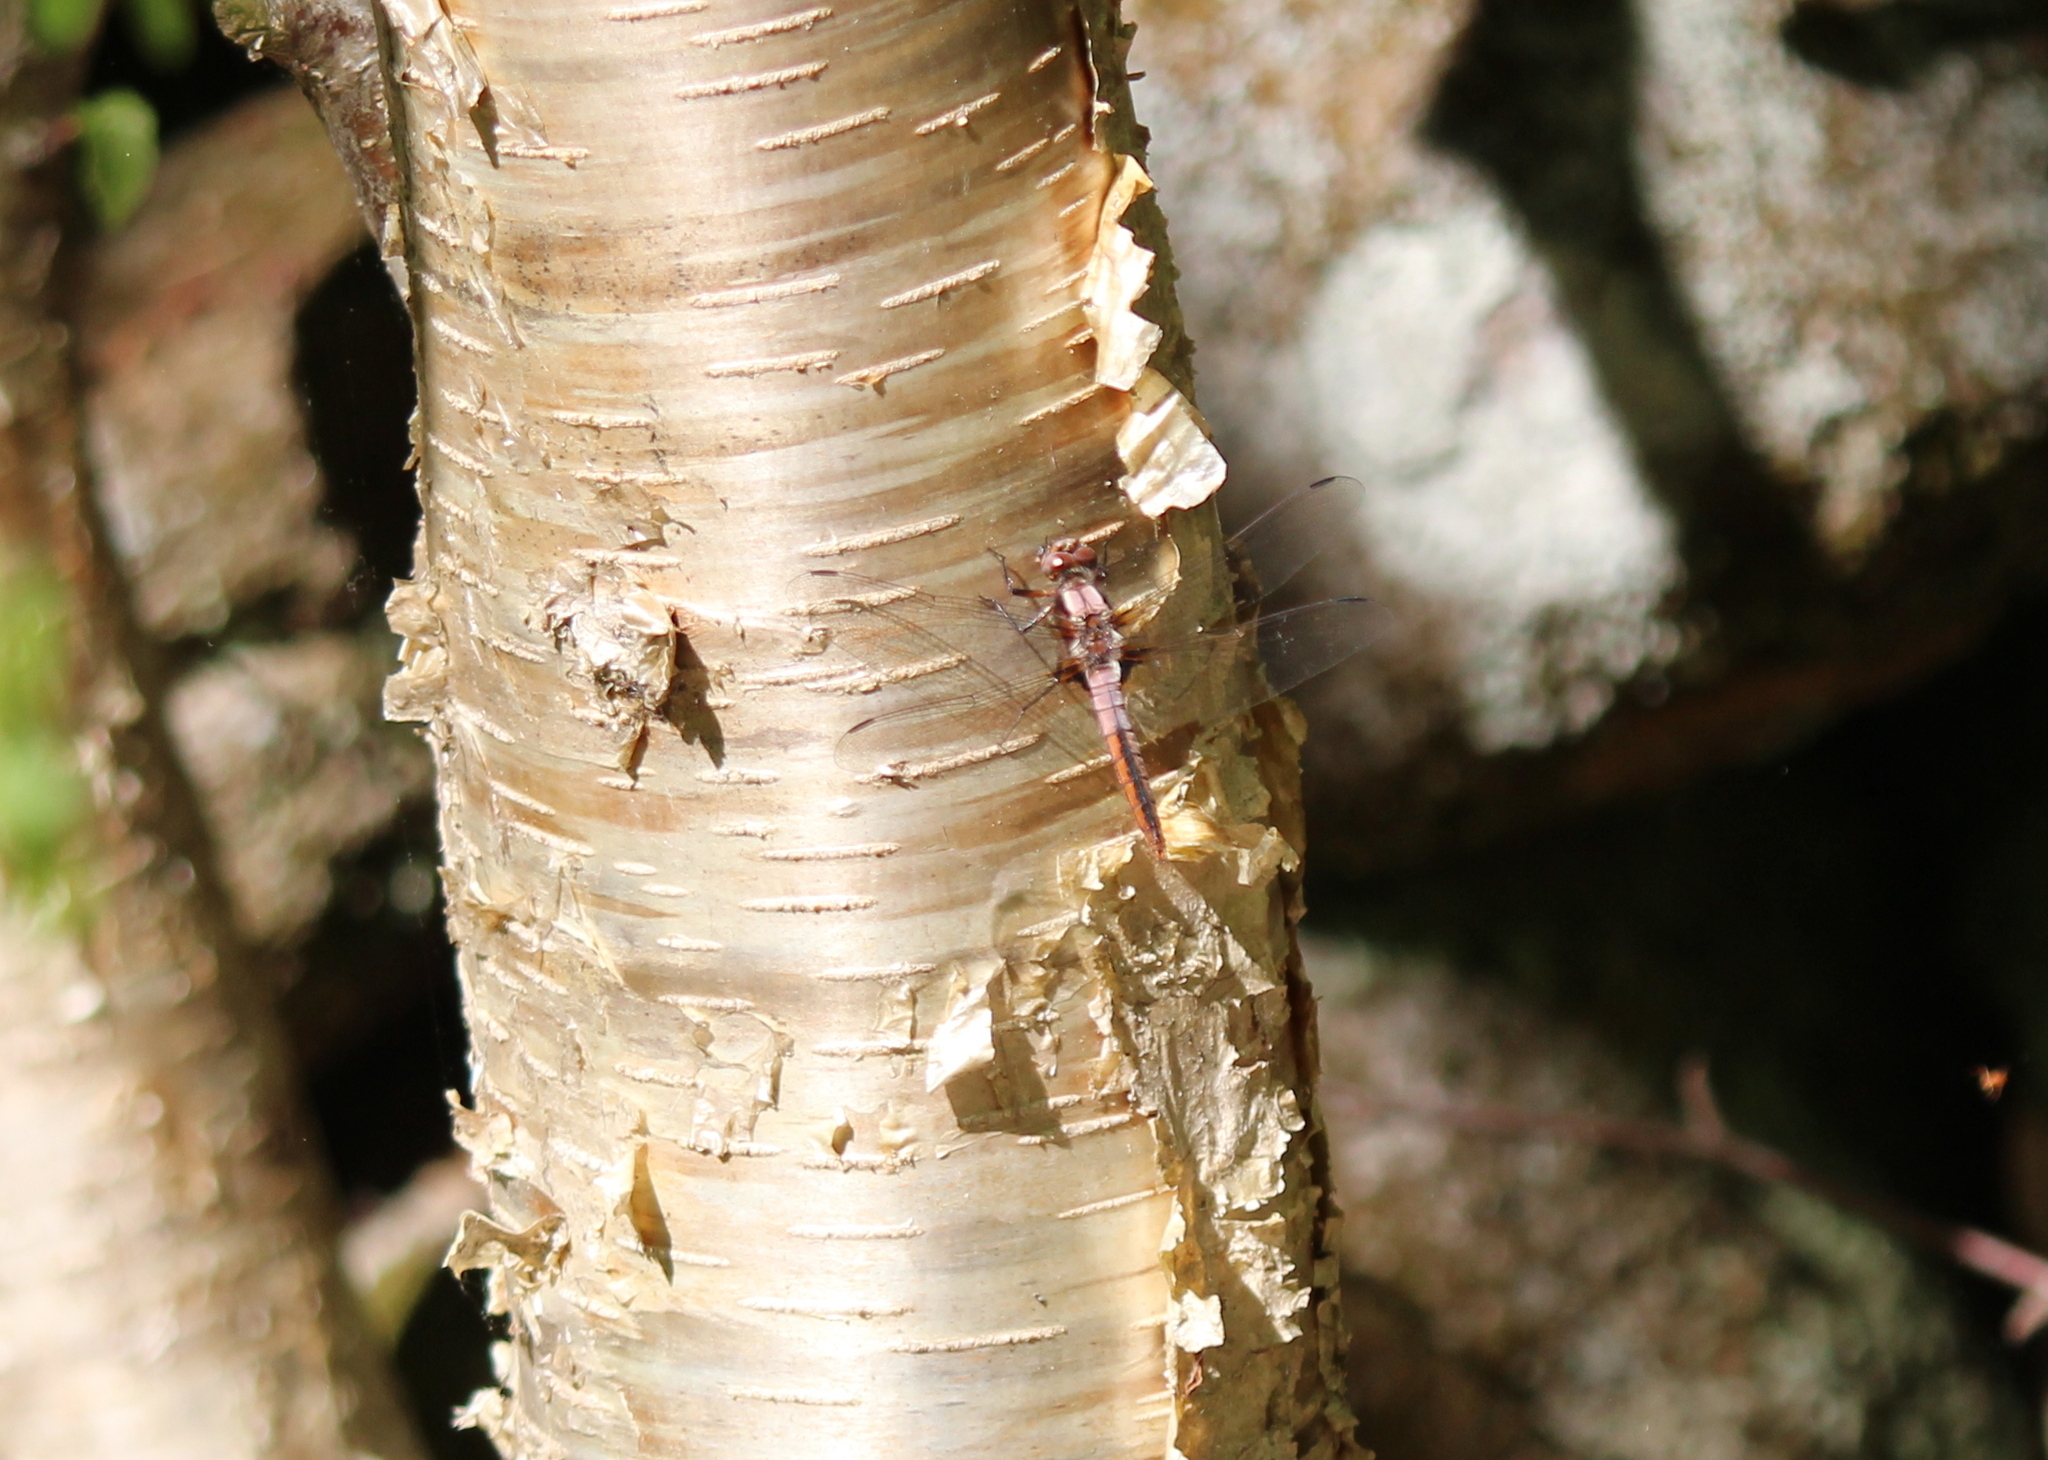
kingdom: Plantae
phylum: Tracheophyta
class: Magnoliopsida
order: Fagales
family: Betulaceae
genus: Betula
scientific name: Betula alleghaniensis
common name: Yellow birch
